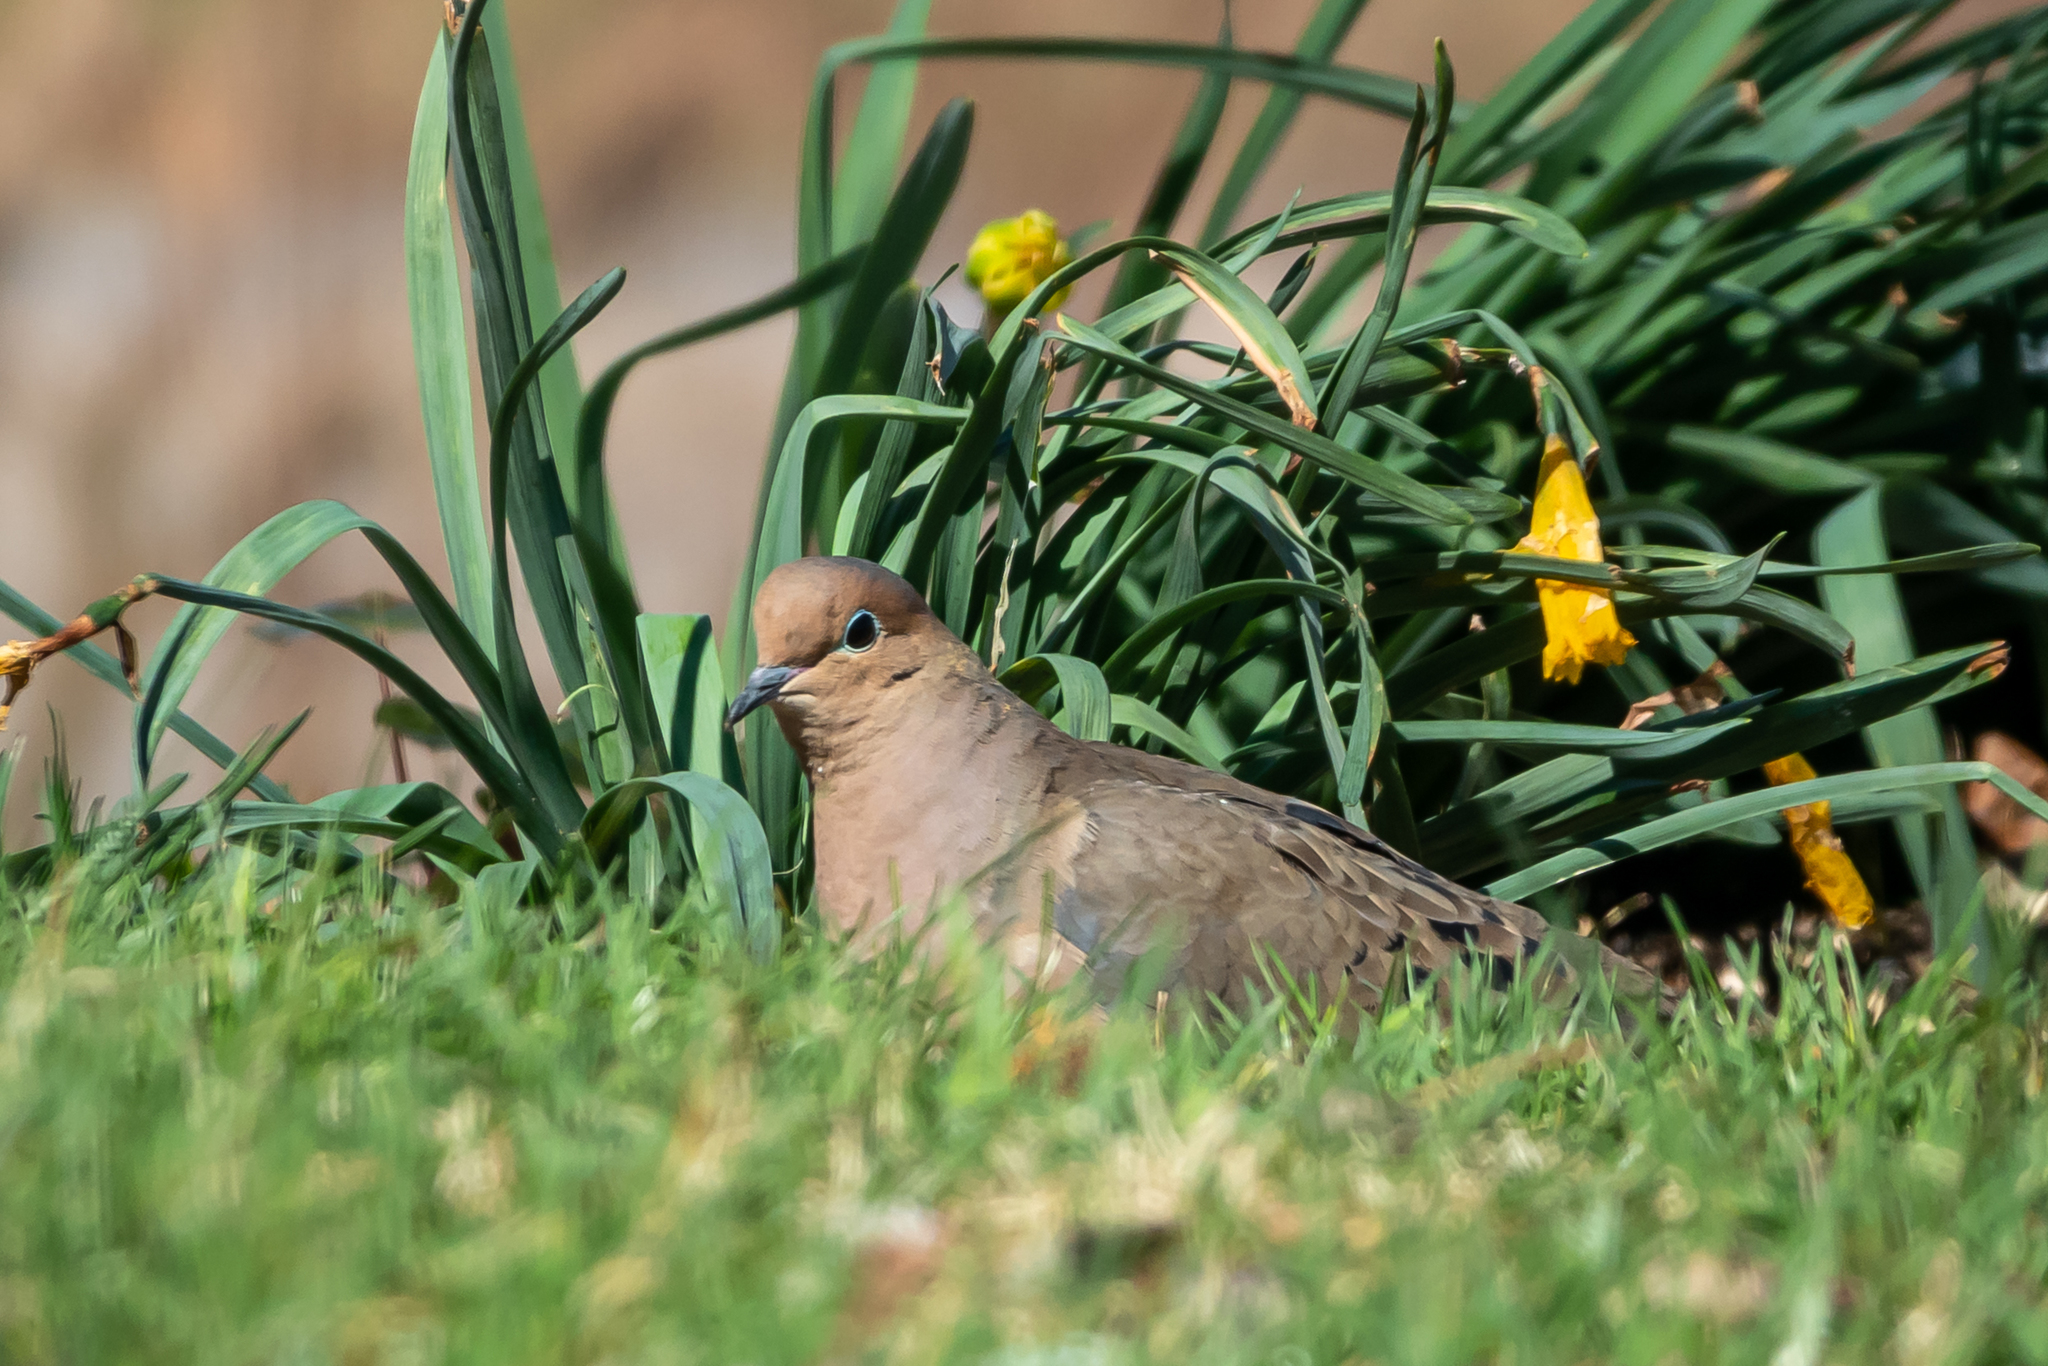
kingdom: Animalia
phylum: Chordata
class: Aves
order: Columbiformes
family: Columbidae
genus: Zenaida
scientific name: Zenaida macroura
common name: Mourning dove
